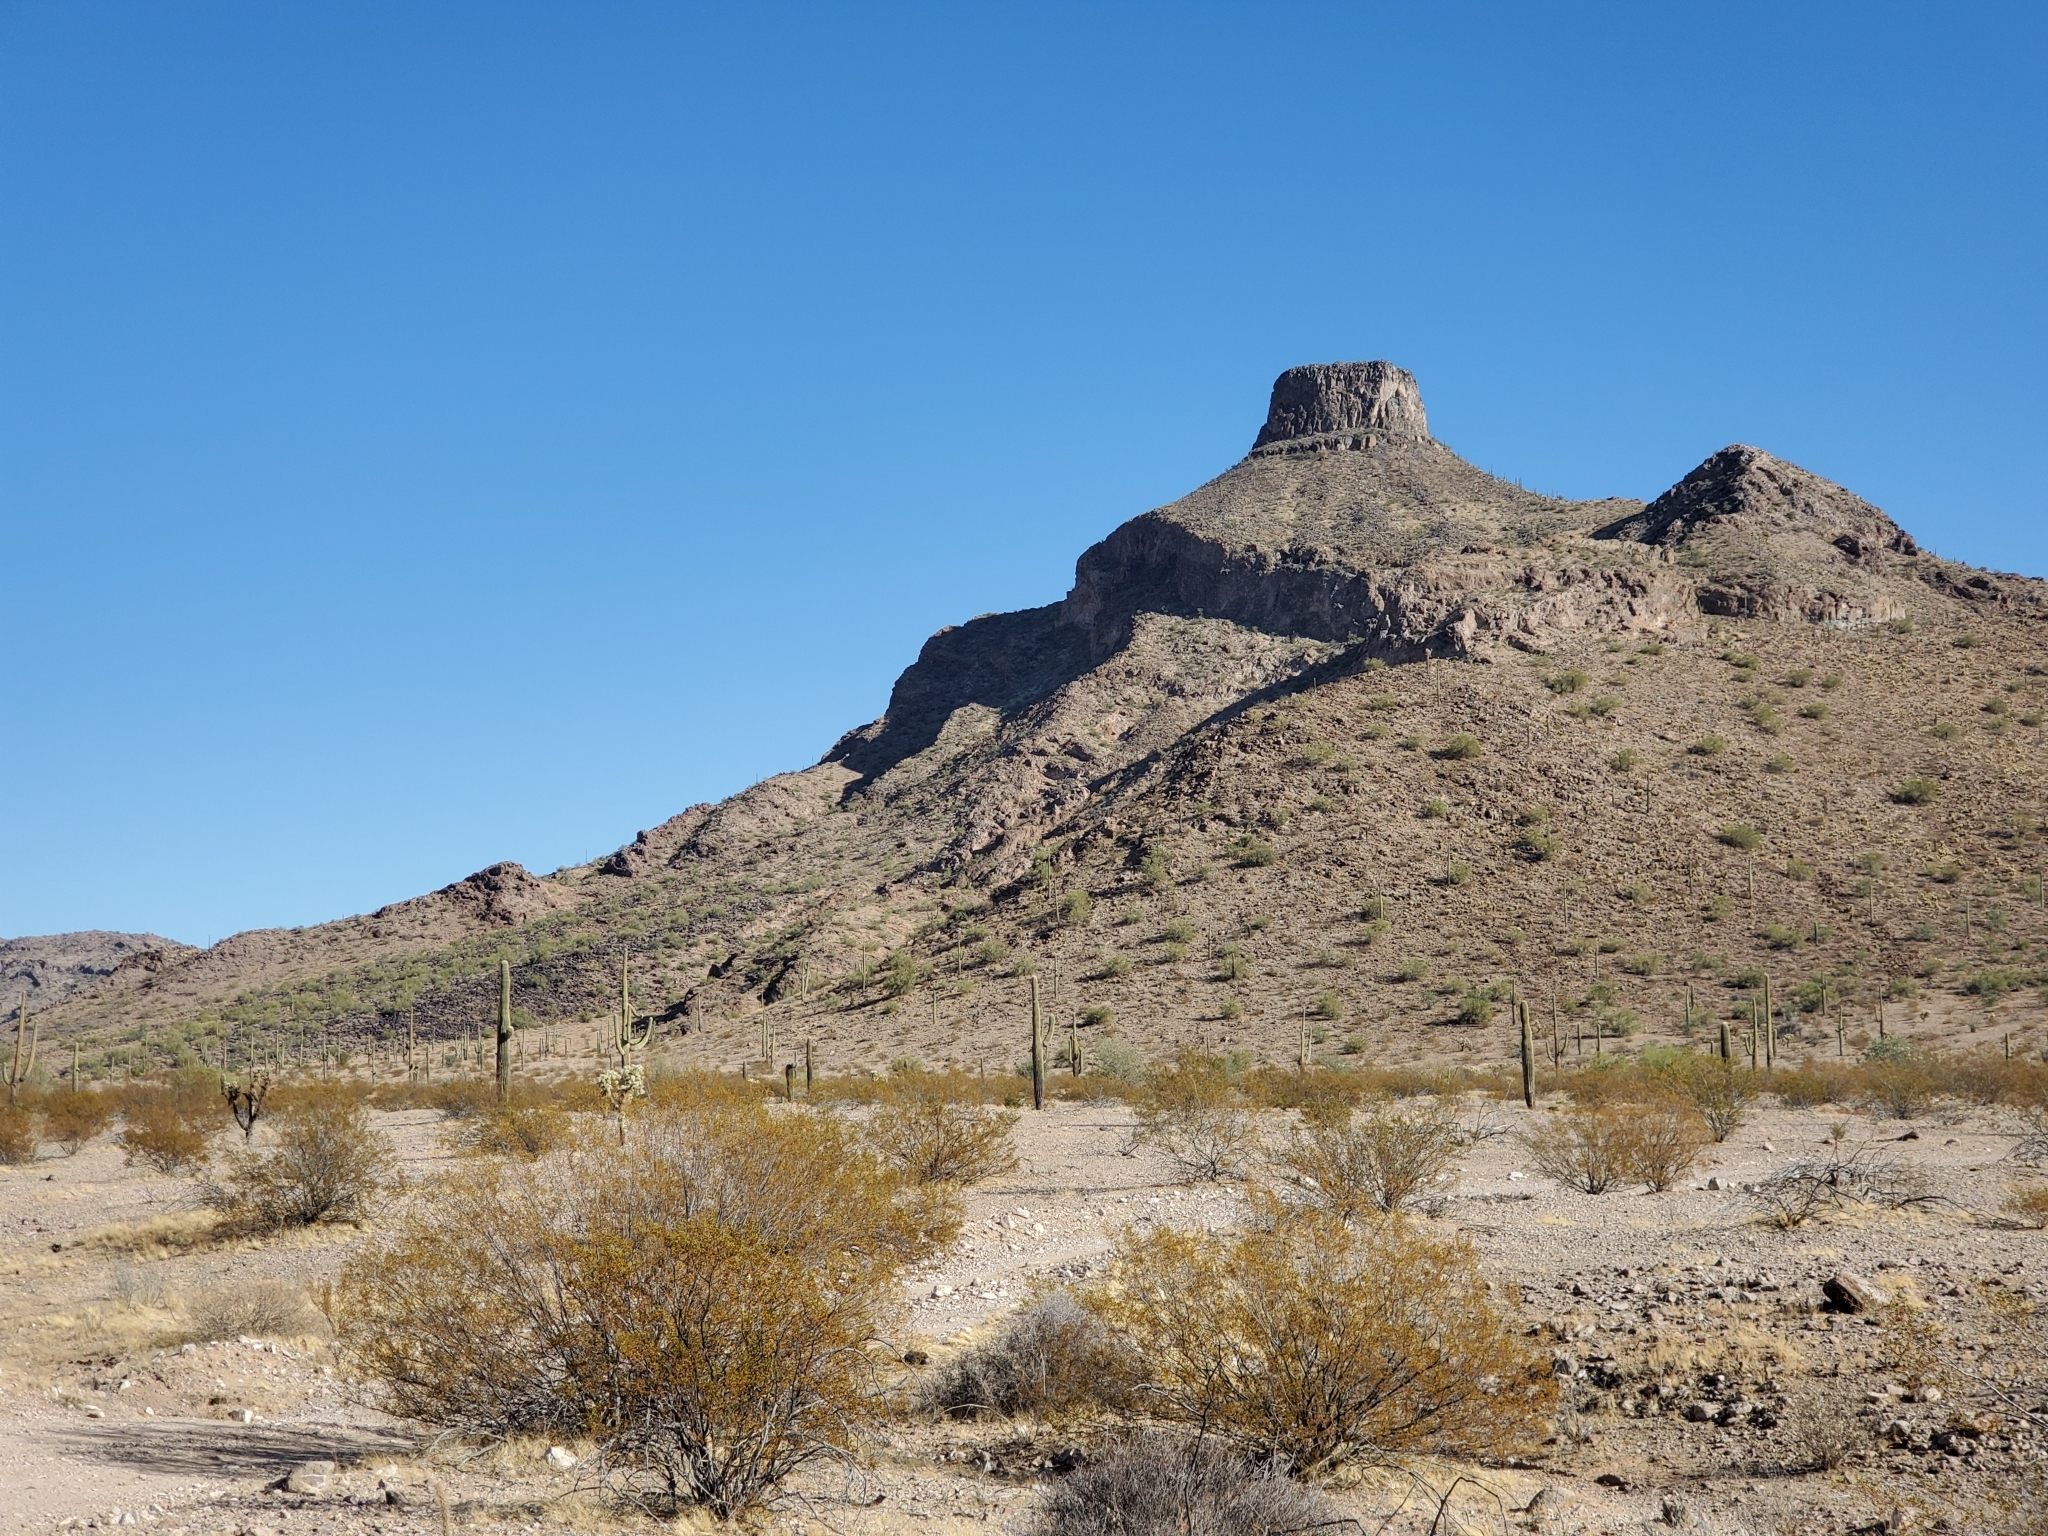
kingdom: Plantae
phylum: Tracheophyta
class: Magnoliopsida
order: Zygophyllales
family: Zygophyllaceae
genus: Larrea
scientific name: Larrea tridentata
